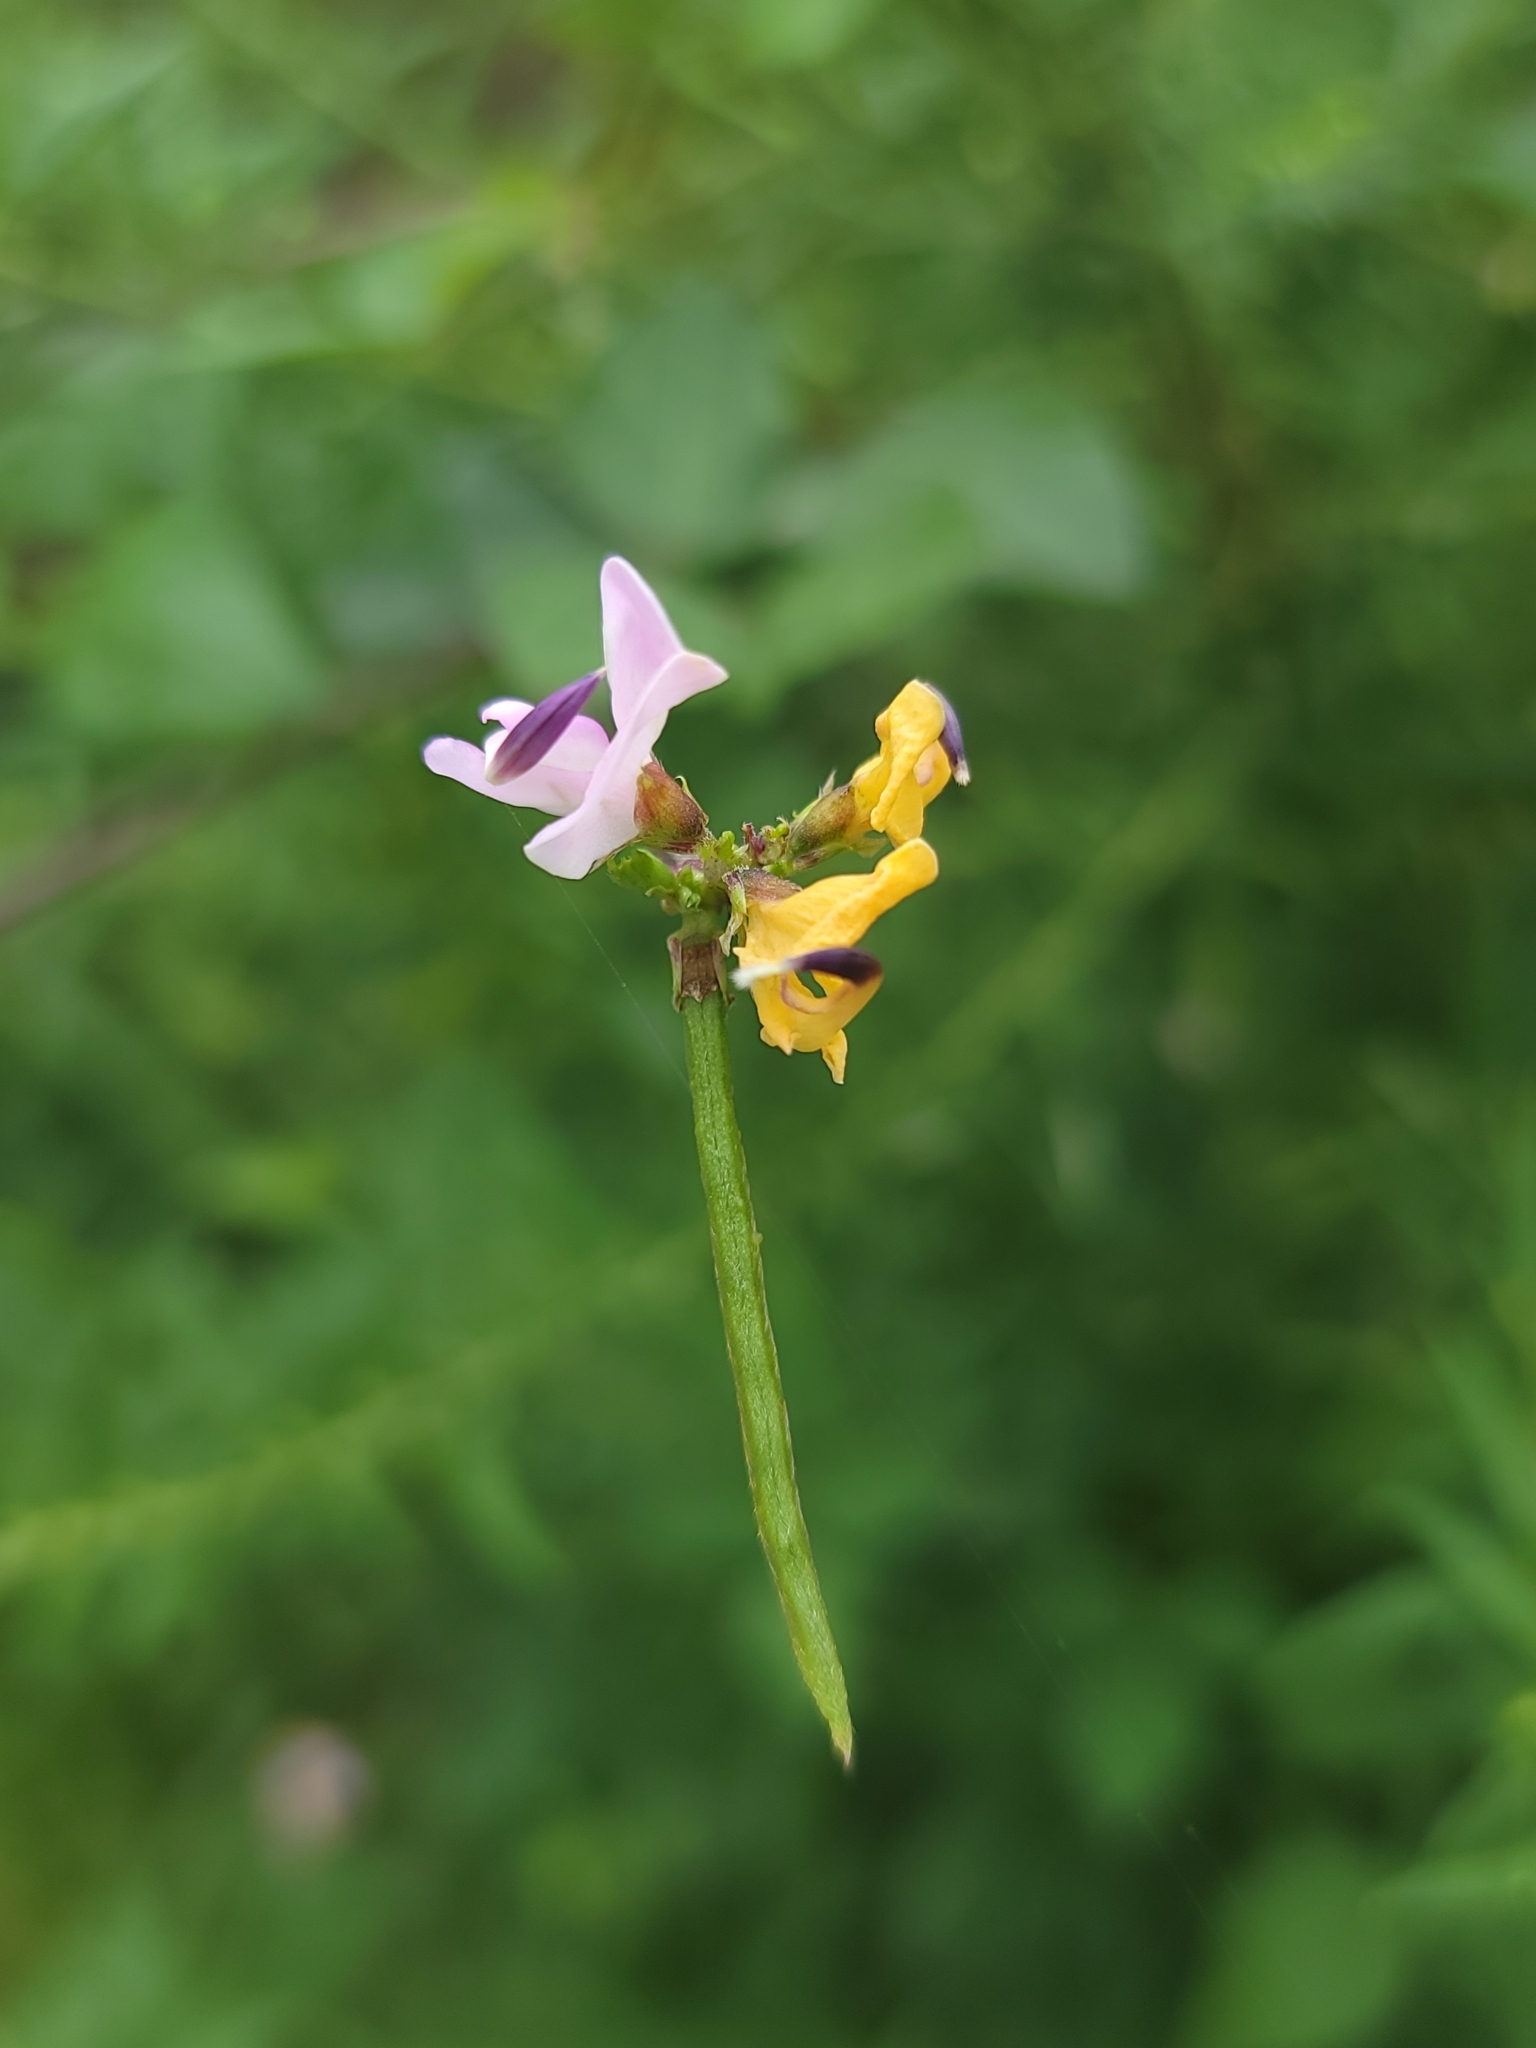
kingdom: Plantae
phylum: Tracheophyta
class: Magnoliopsida
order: Fabales
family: Fabaceae
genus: Strophostyles
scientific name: Strophostyles helvola
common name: Trailing wild bean
